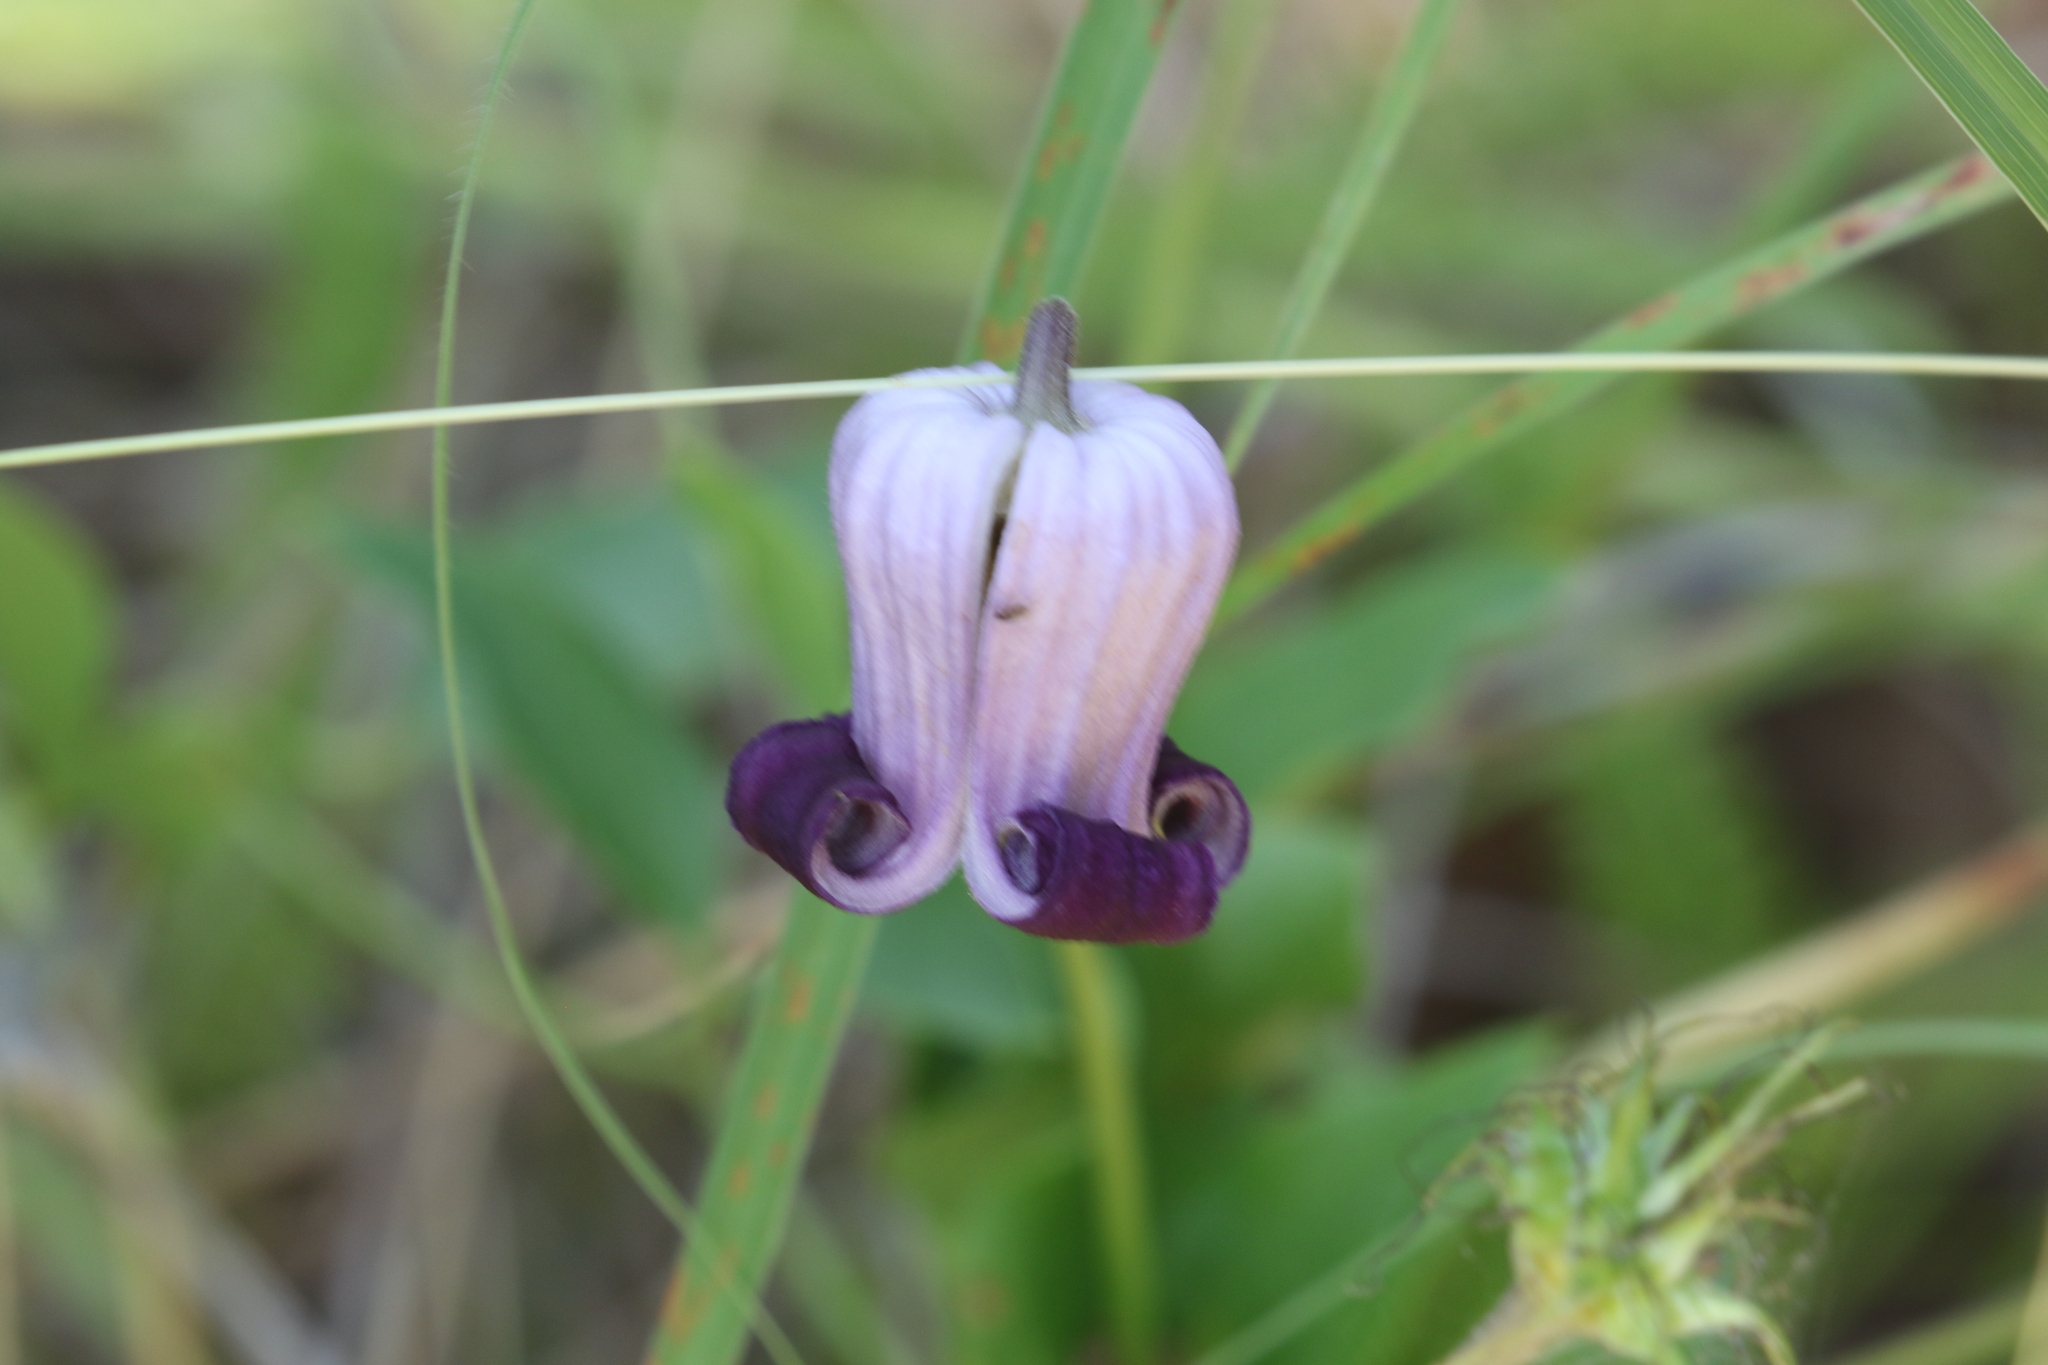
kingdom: Plantae
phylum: Tracheophyta
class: Magnoliopsida
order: Ranunculales
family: Ranunculaceae
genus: Clematis
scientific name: Clematis pitcheri
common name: Bellflower clematis
